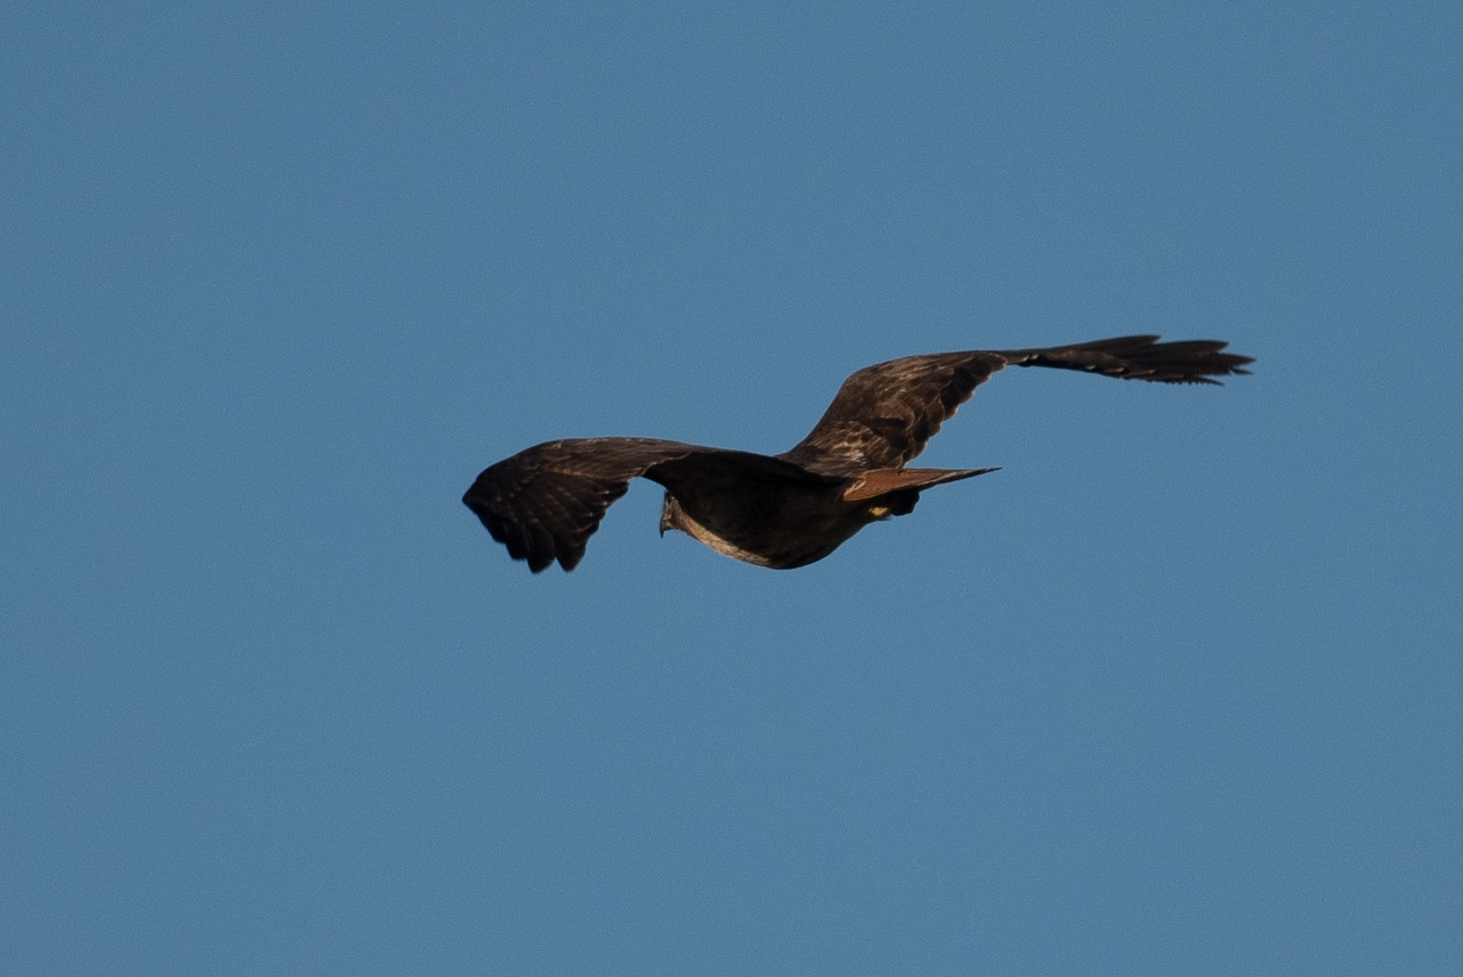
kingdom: Animalia
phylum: Chordata
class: Aves
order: Accipitriformes
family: Accipitridae
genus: Buteo
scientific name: Buteo jamaicensis
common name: Red-tailed hawk
